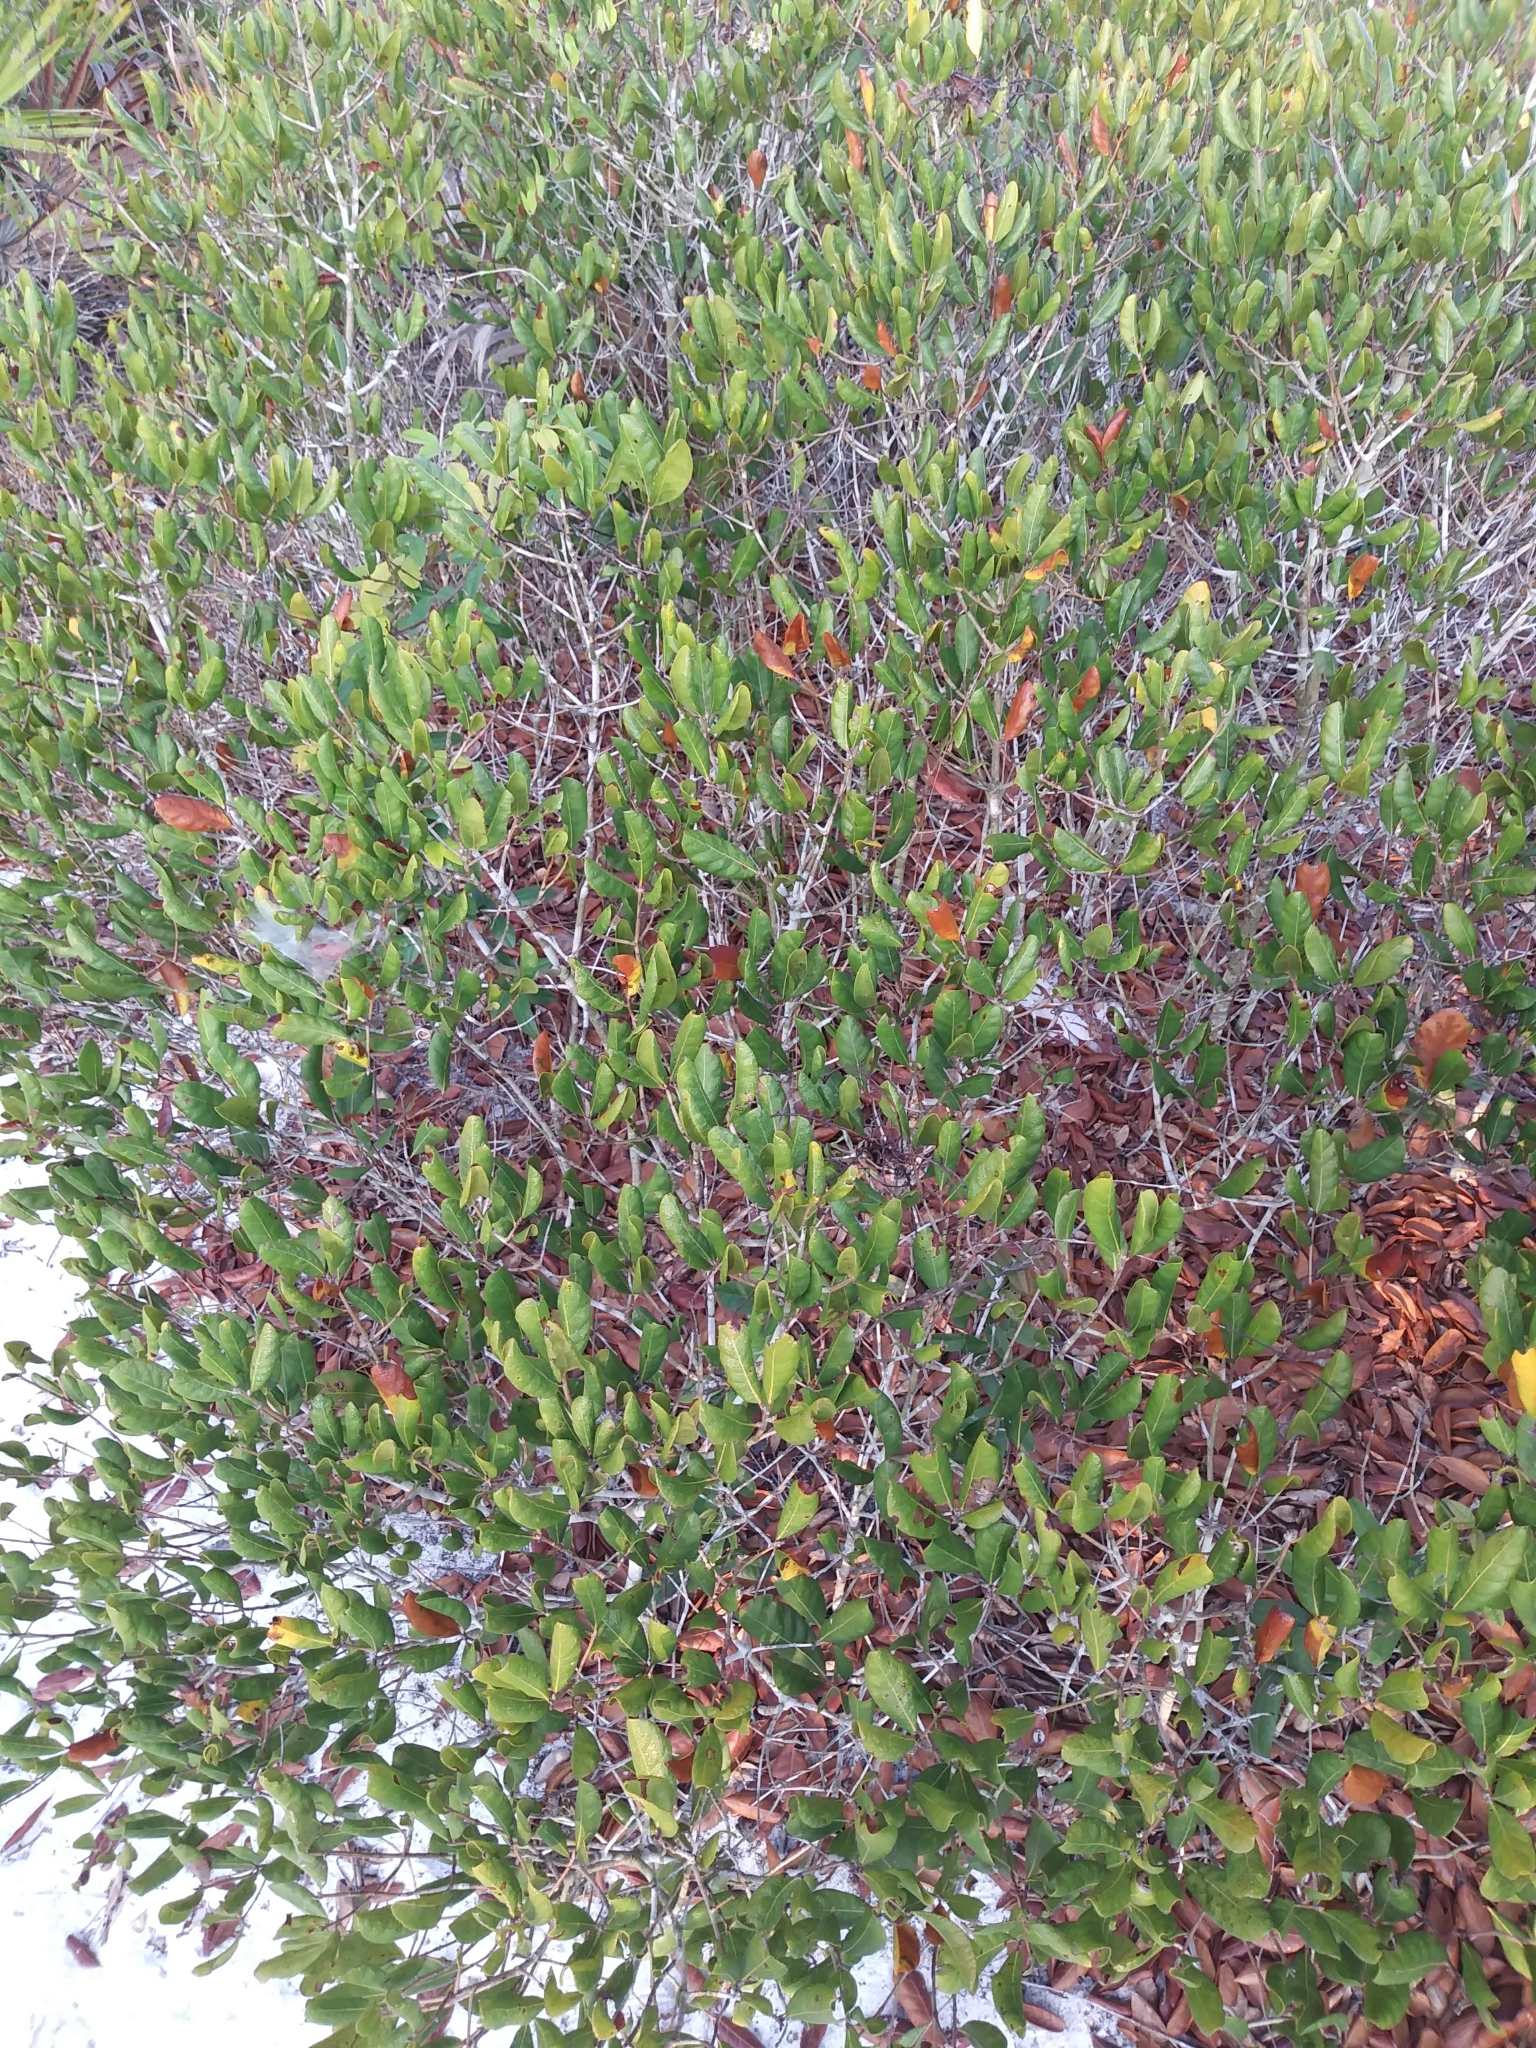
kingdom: Plantae
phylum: Tracheophyta
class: Magnoliopsida
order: Fagales
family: Fagaceae
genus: Quercus
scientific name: Quercus inopina
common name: Sandhill oak
